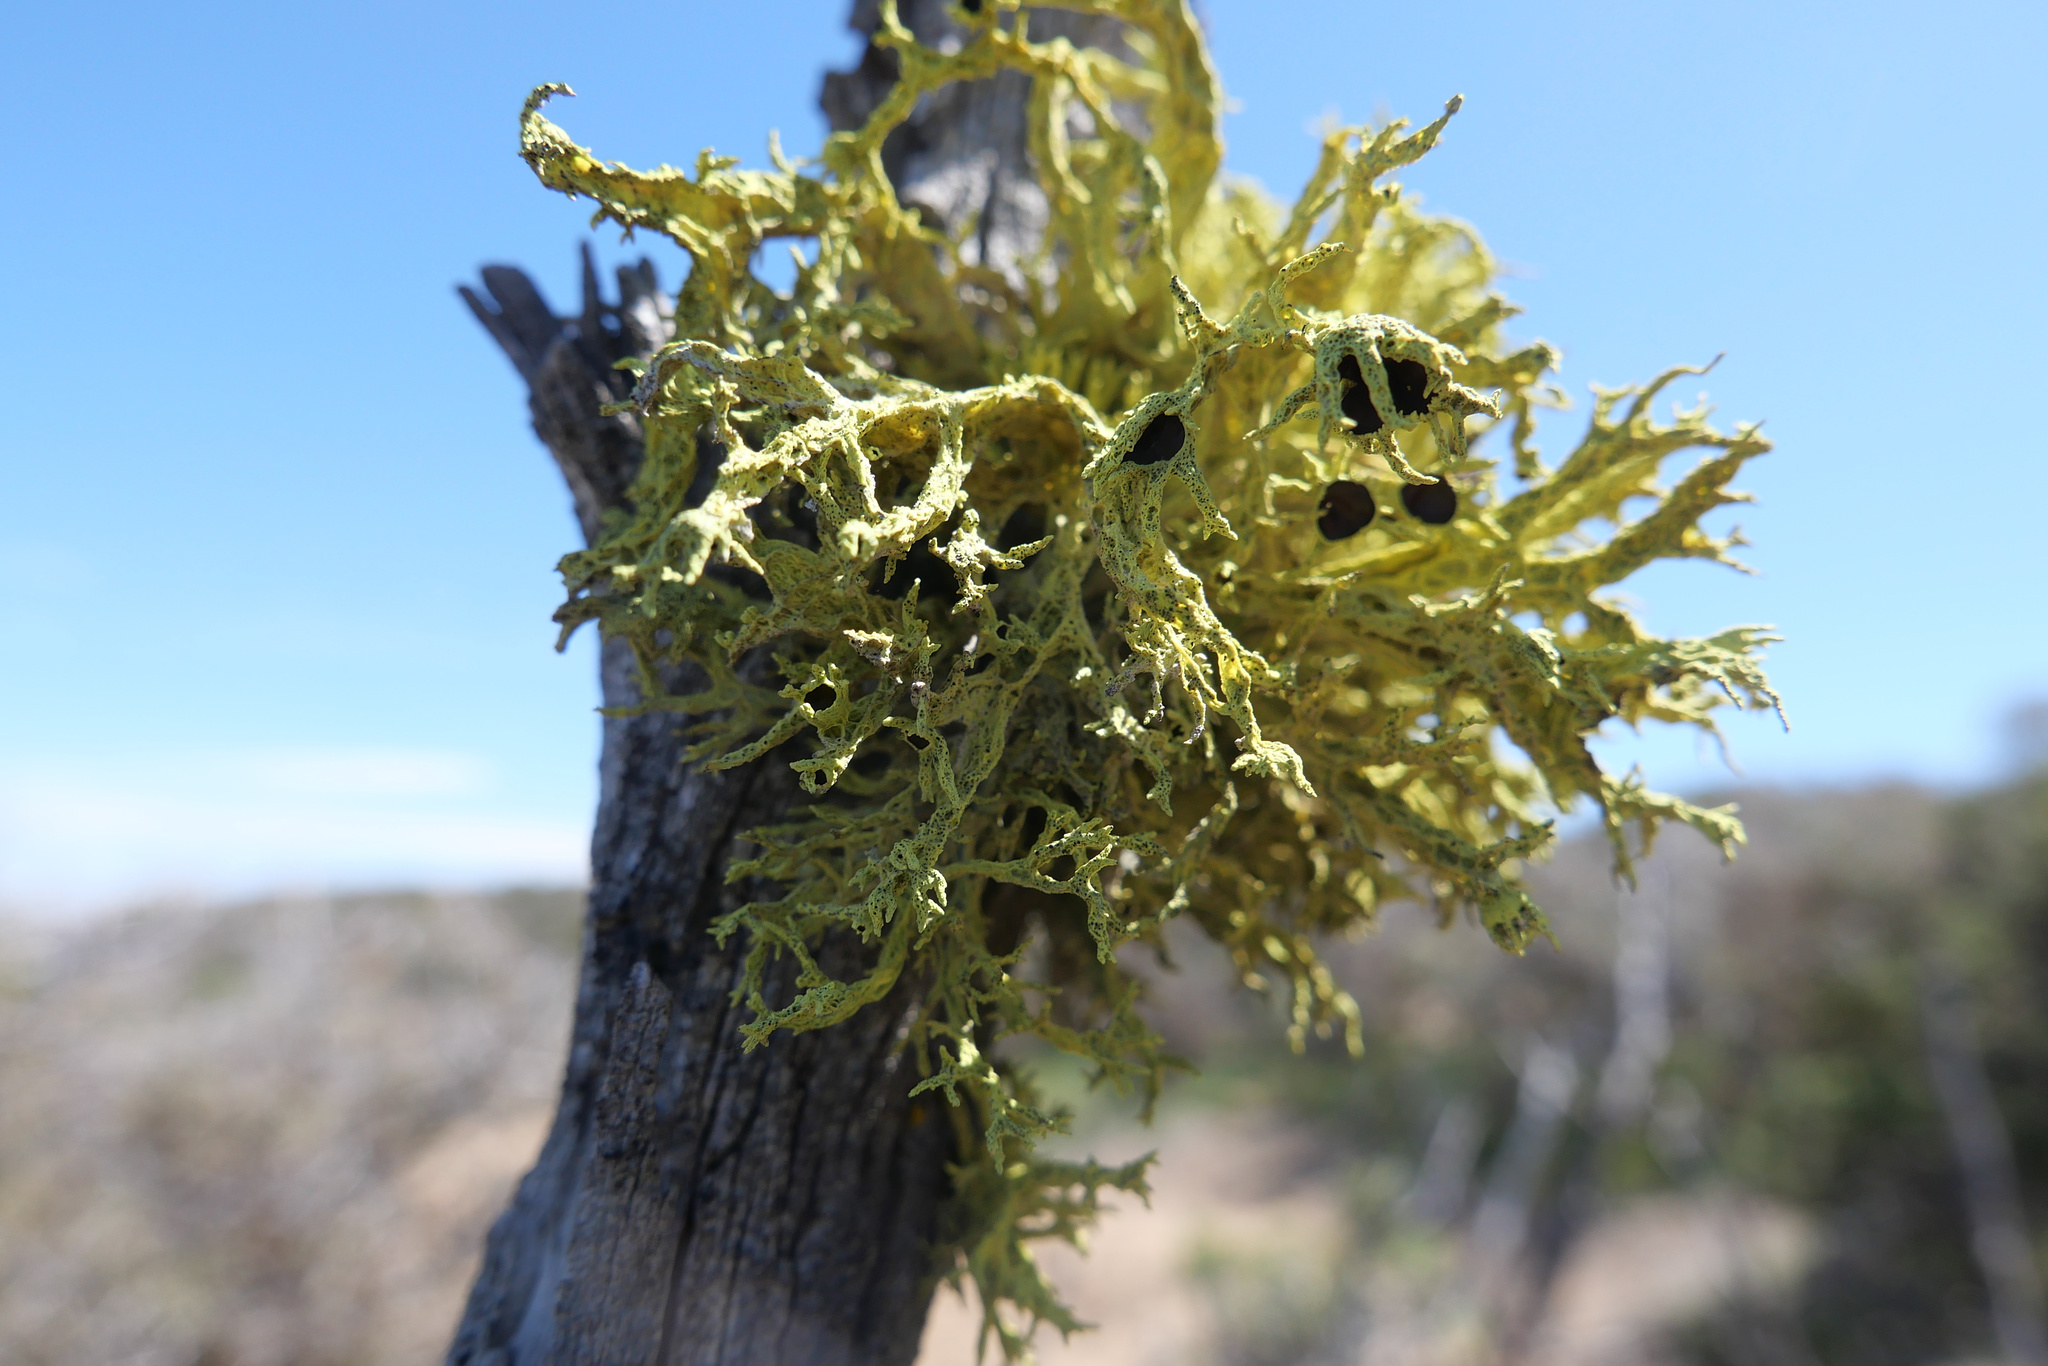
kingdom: Fungi
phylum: Ascomycota
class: Lecanoromycetes
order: Lecanorales
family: Parmeliaceae
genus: Letharia
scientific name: Letharia columbiana
